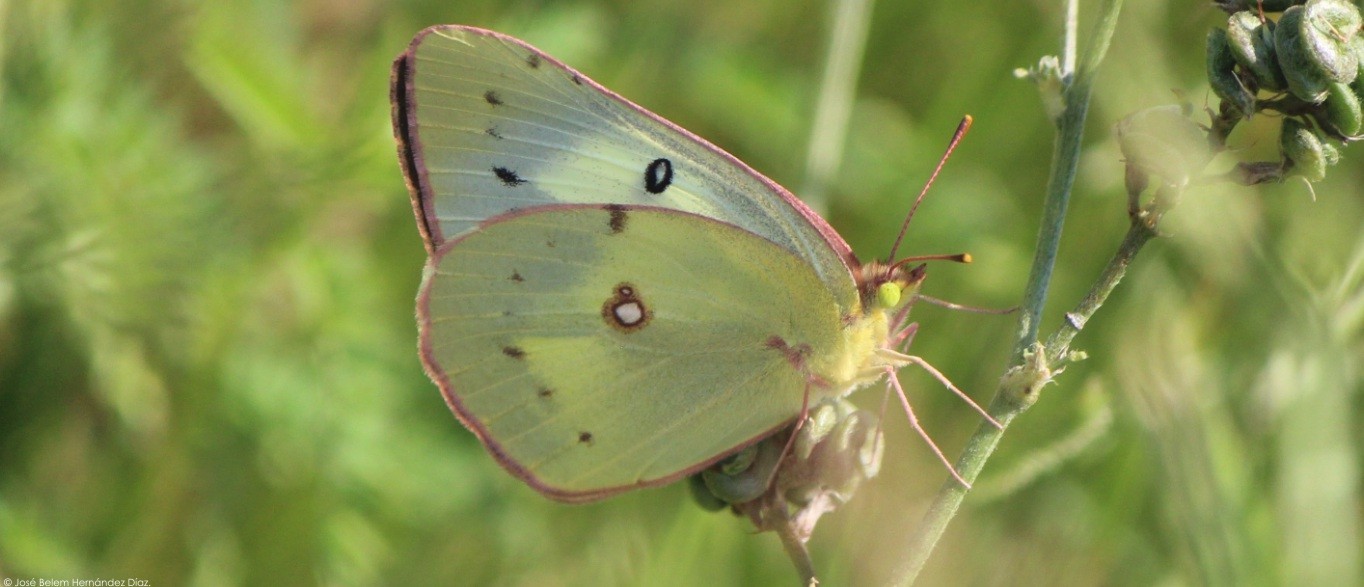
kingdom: Animalia
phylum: Arthropoda
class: Insecta
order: Lepidoptera
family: Pieridae
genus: Colias
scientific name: Colias eurytheme
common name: Alfalfa butterfly
